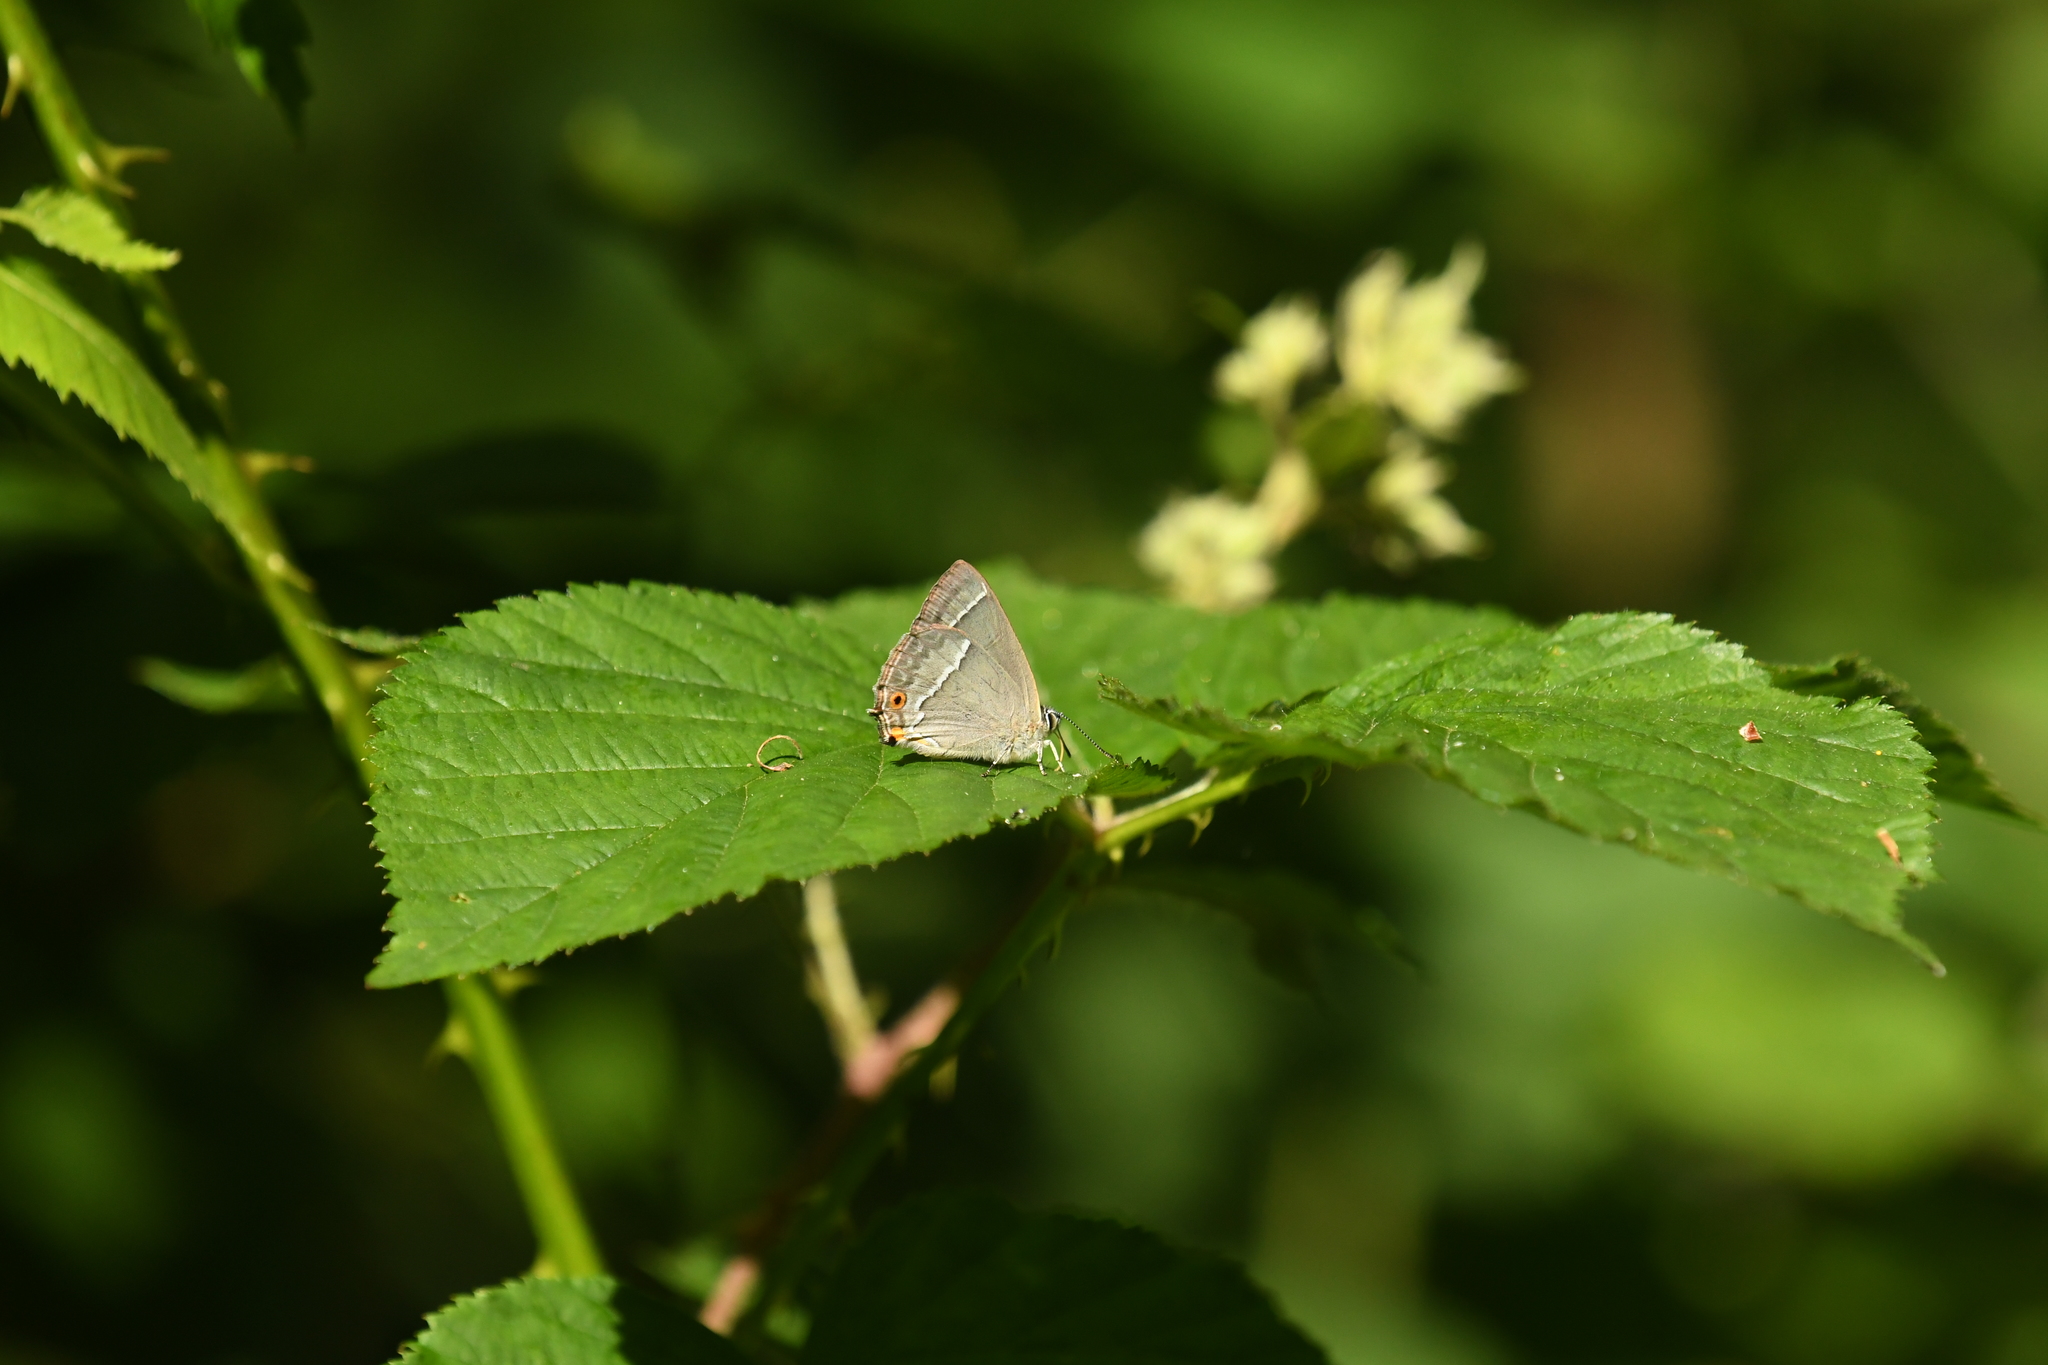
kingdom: Animalia
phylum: Arthropoda
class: Insecta
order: Lepidoptera
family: Lycaenidae
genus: Quercusia
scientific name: Quercusia quercus
